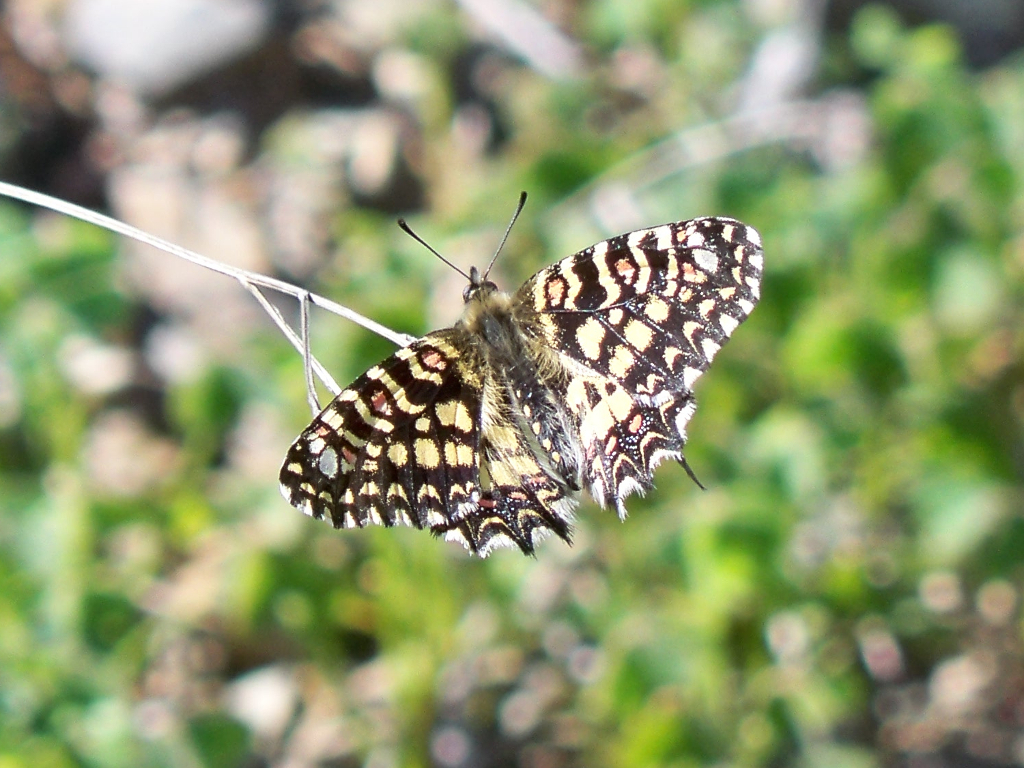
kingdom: Animalia
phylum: Arthropoda
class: Insecta
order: Lepidoptera
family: Papilionidae
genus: Zerynthia
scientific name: Zerynthia rumina
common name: Spanish festoon
